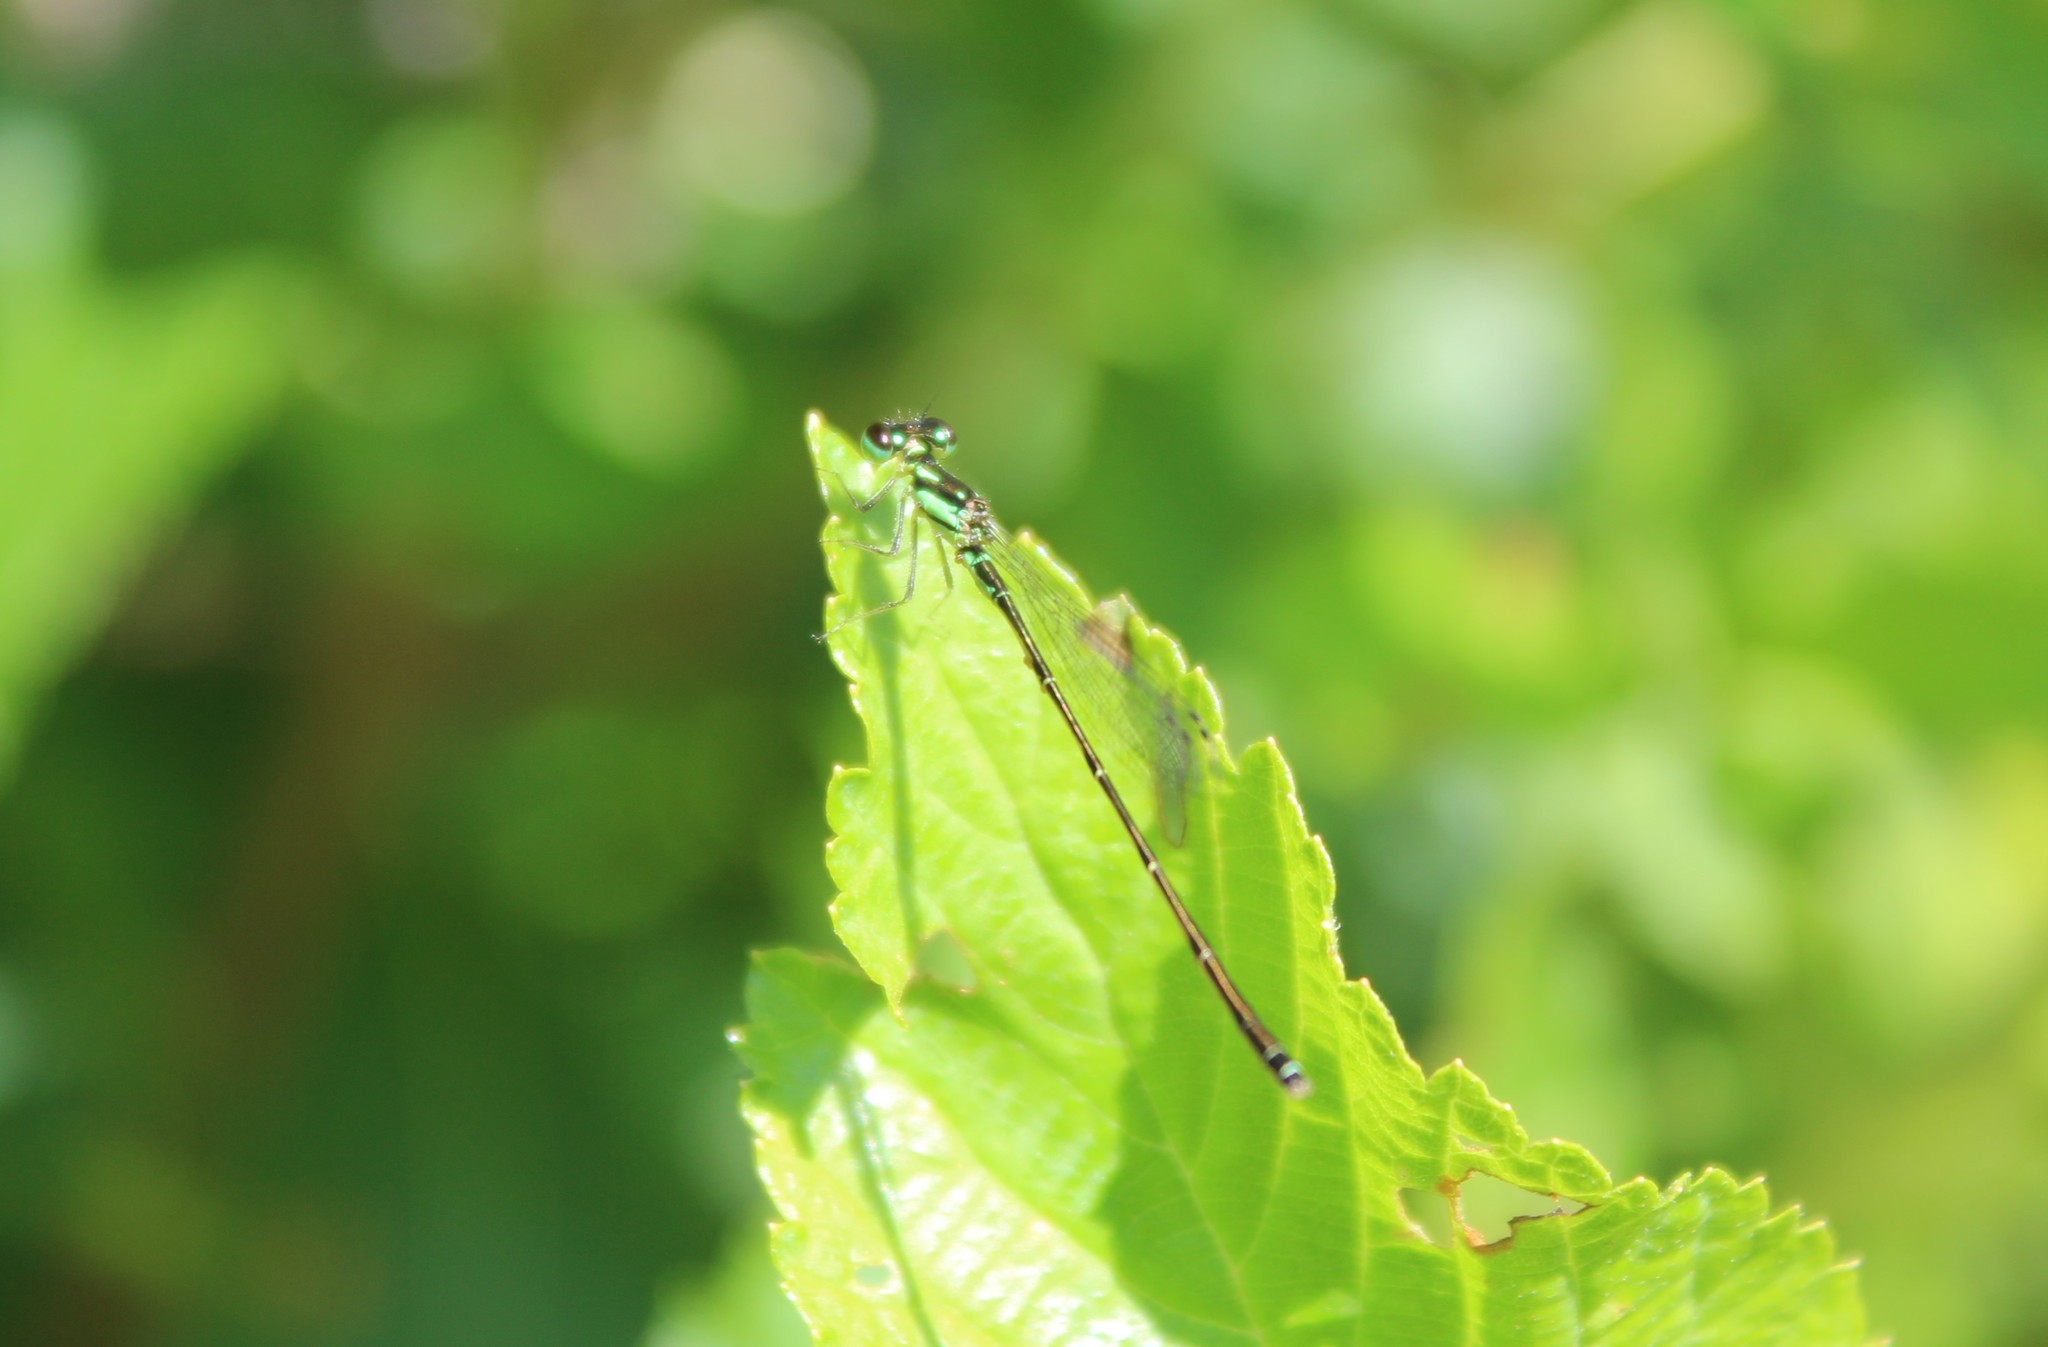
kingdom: Animalia
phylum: Arthropoda
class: Insecta
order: Odonata
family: Coenagrionidae
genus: Ischnura
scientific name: Ischnura posita
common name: Fragile forktail
